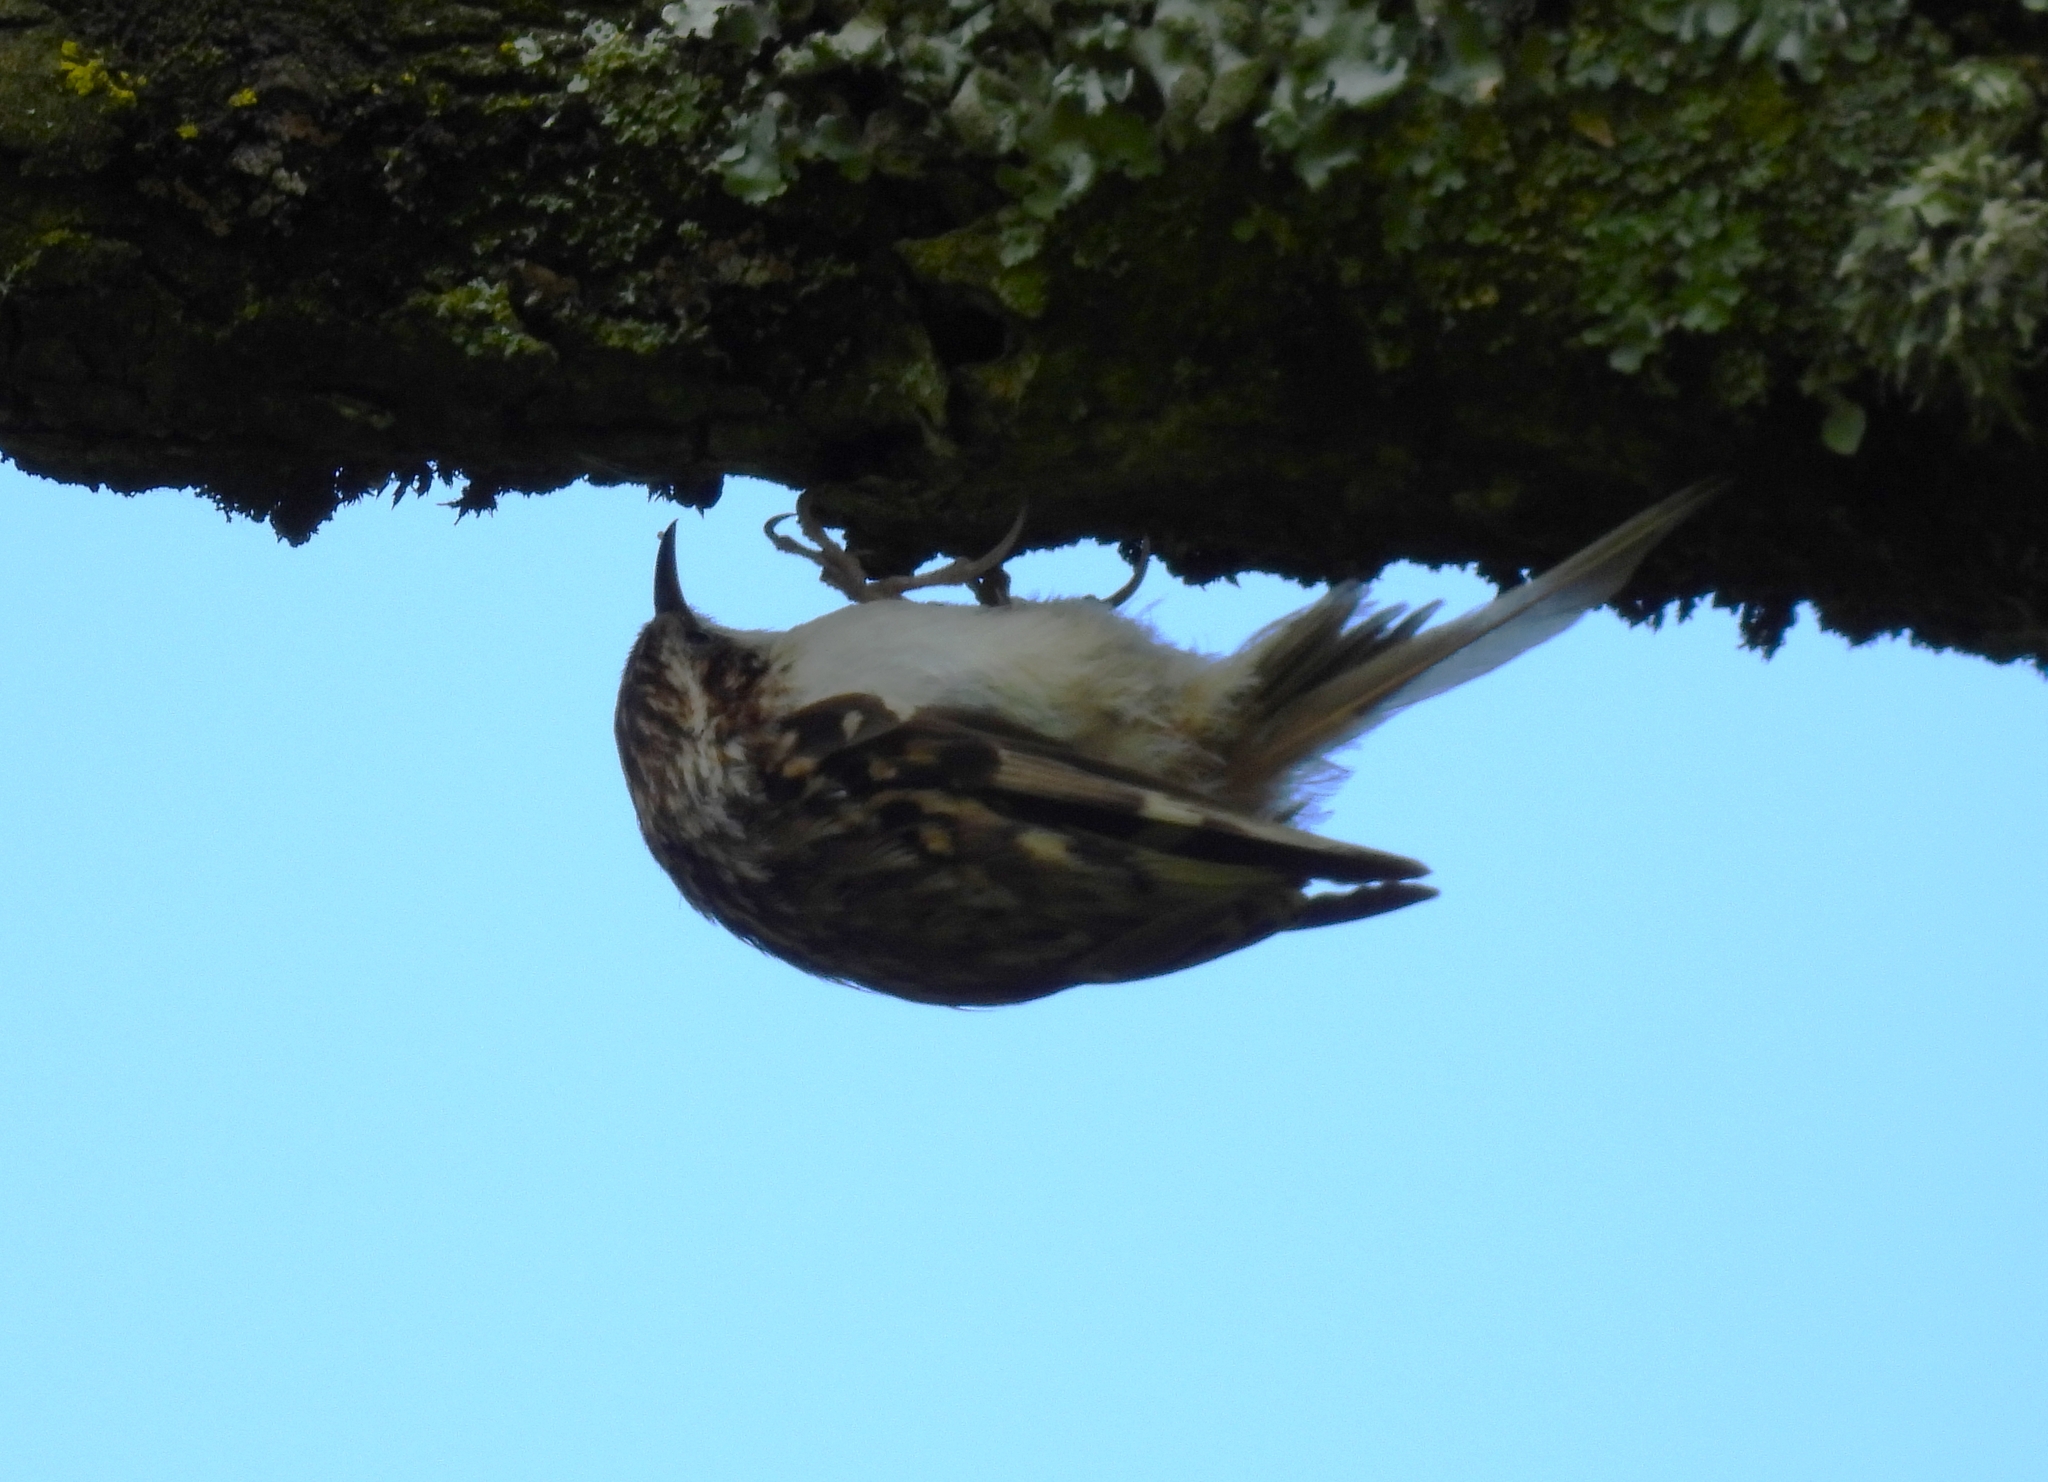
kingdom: Animalia
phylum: Chordata
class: Aves
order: Passeriformes
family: Certhiidae
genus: Certhia
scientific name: Certhia familiaris
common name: Eurasian treecreeper
